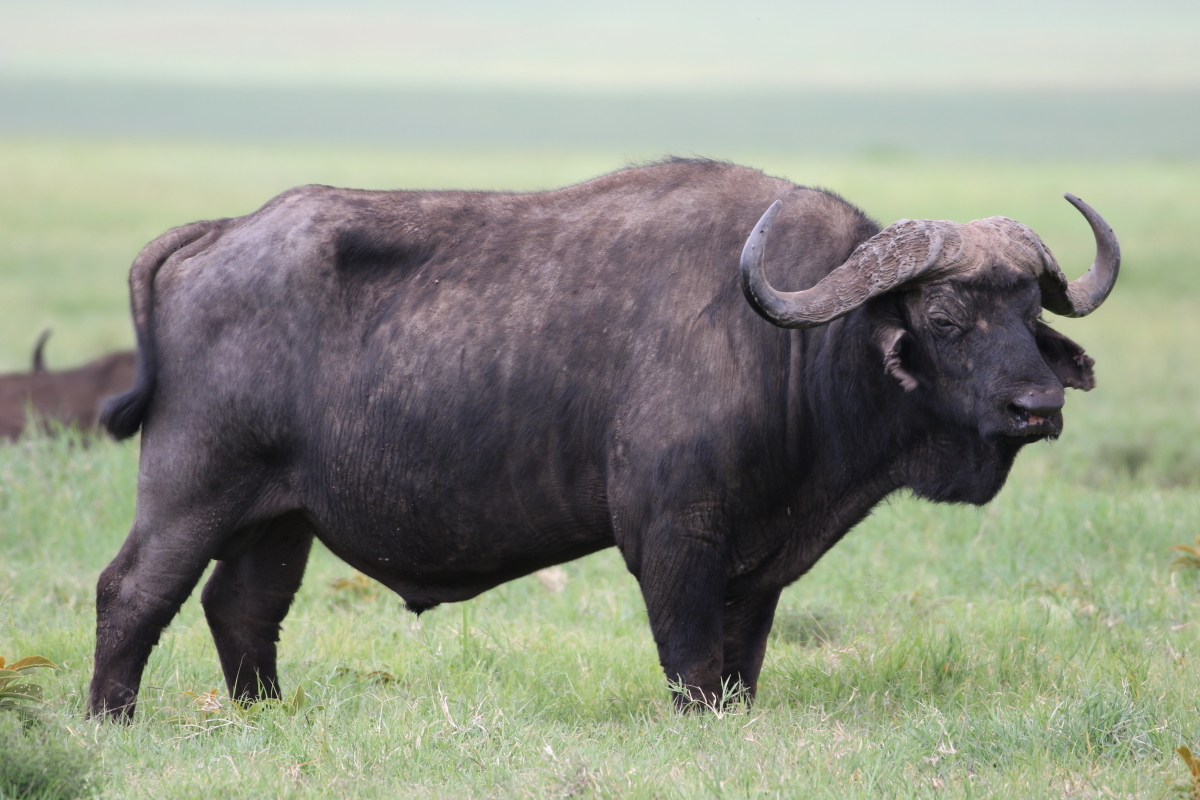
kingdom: Animalia
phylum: Chordata
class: Mammalia
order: Artiodactyla
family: Bovidae
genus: Syncerus
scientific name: Syncerus caffer
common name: African buffalo
